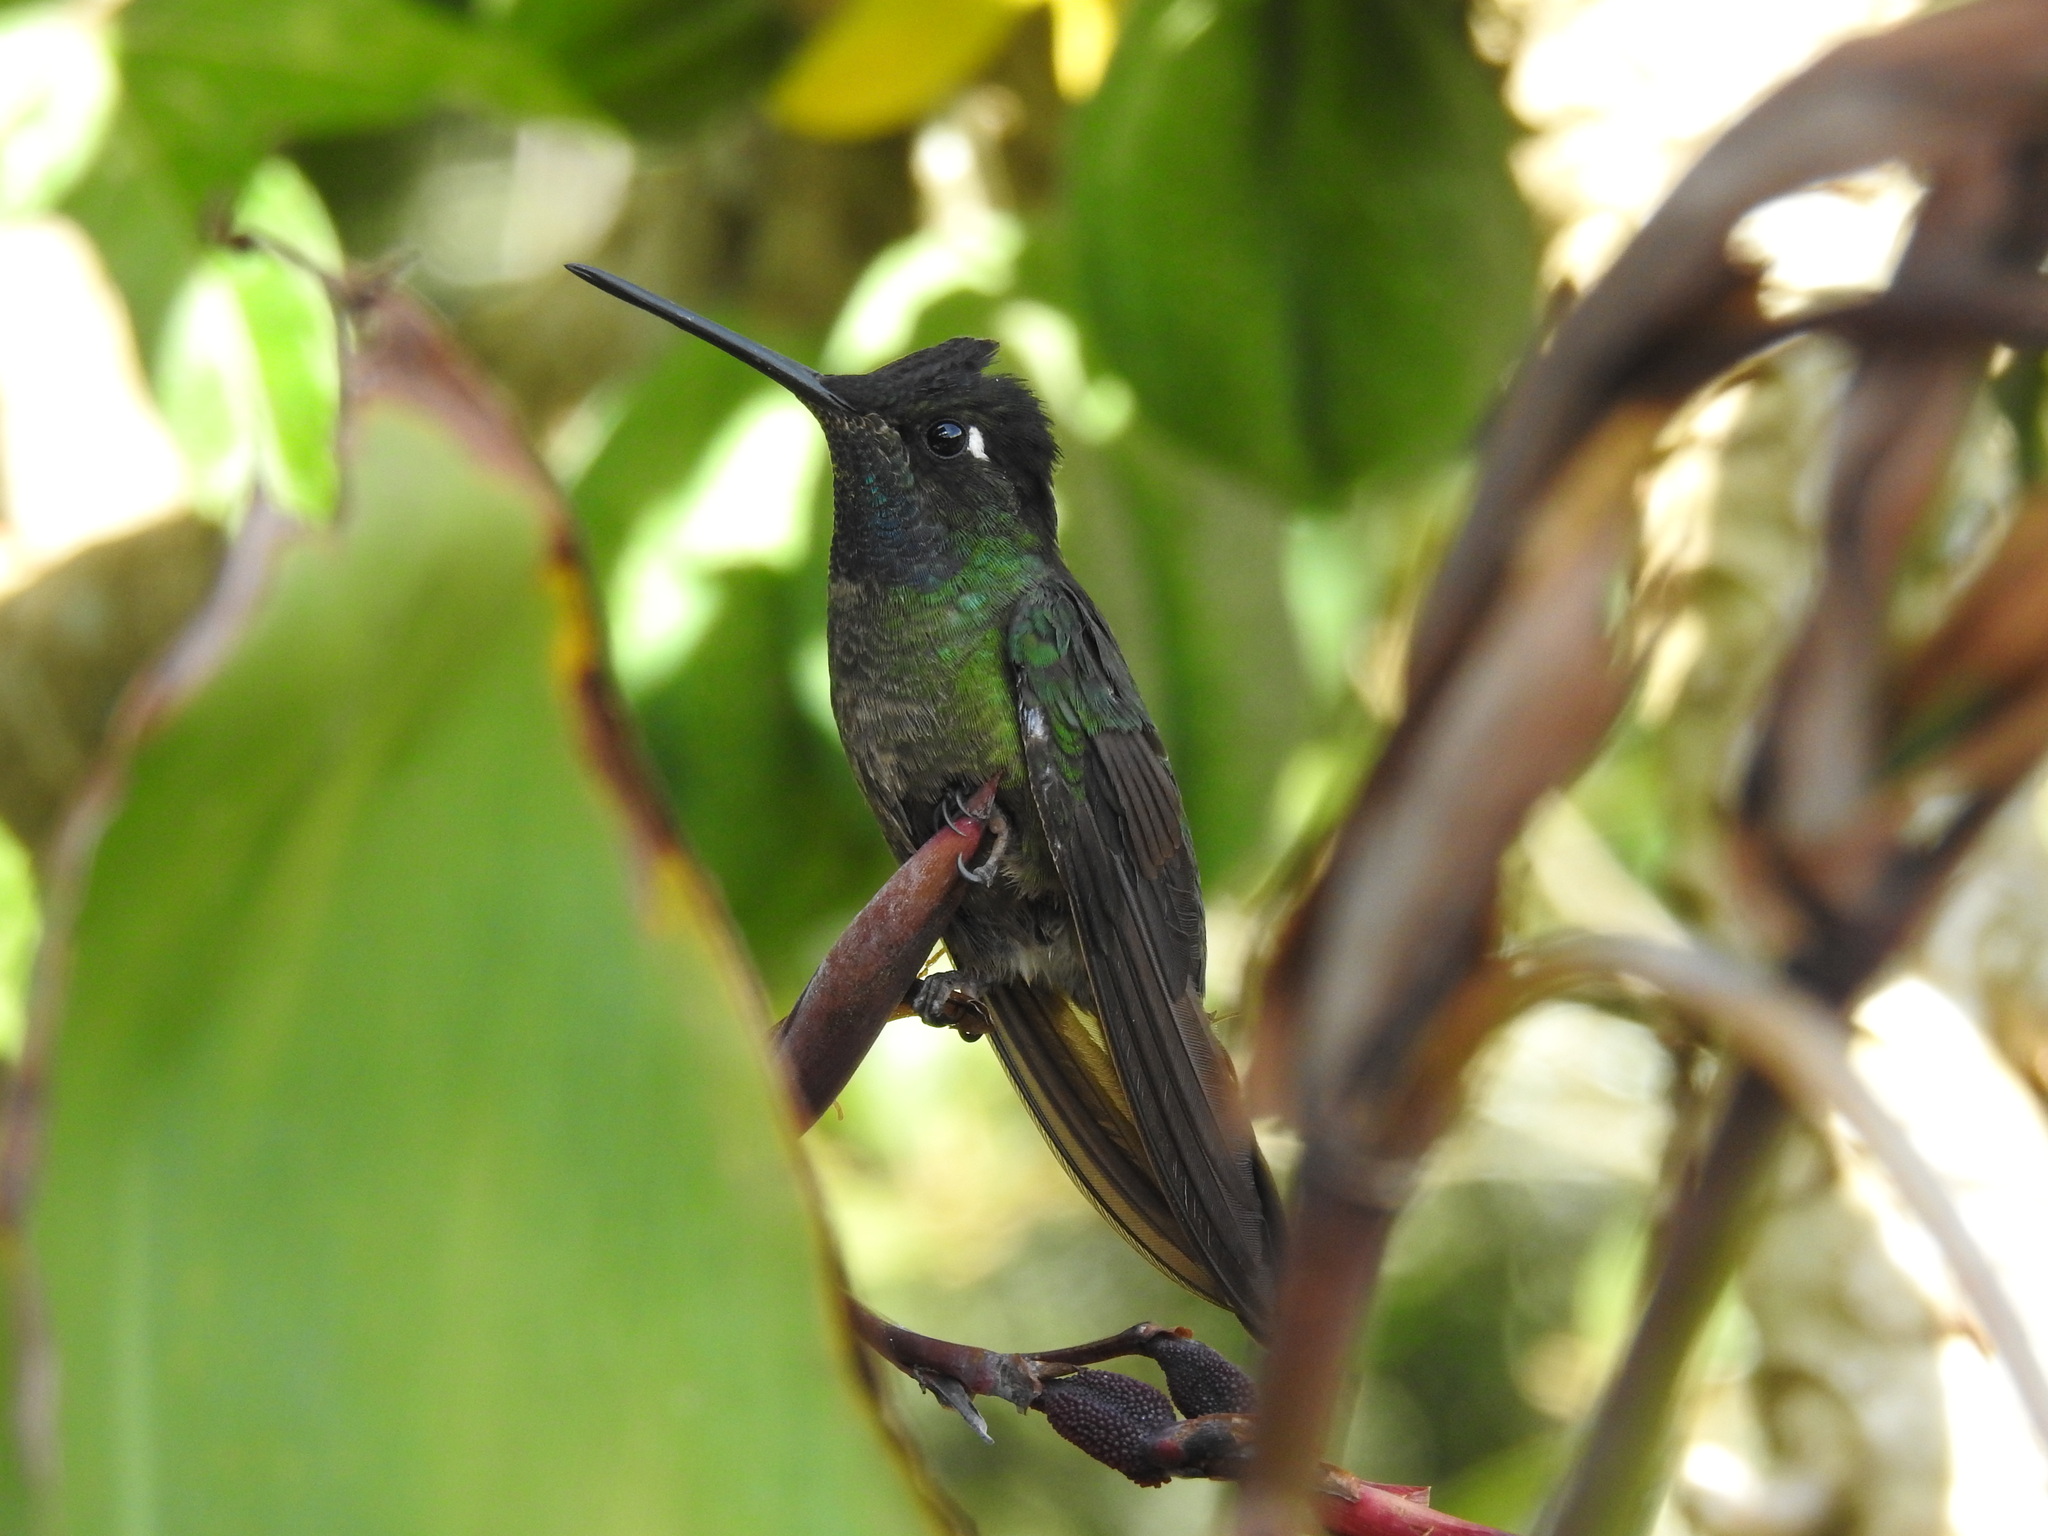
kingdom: Animalia
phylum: Chordata
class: Aves
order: Apodiformes
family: Trochilidae
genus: Eugenes
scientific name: Eugenes spectabilis
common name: Talamanca hummingbird
